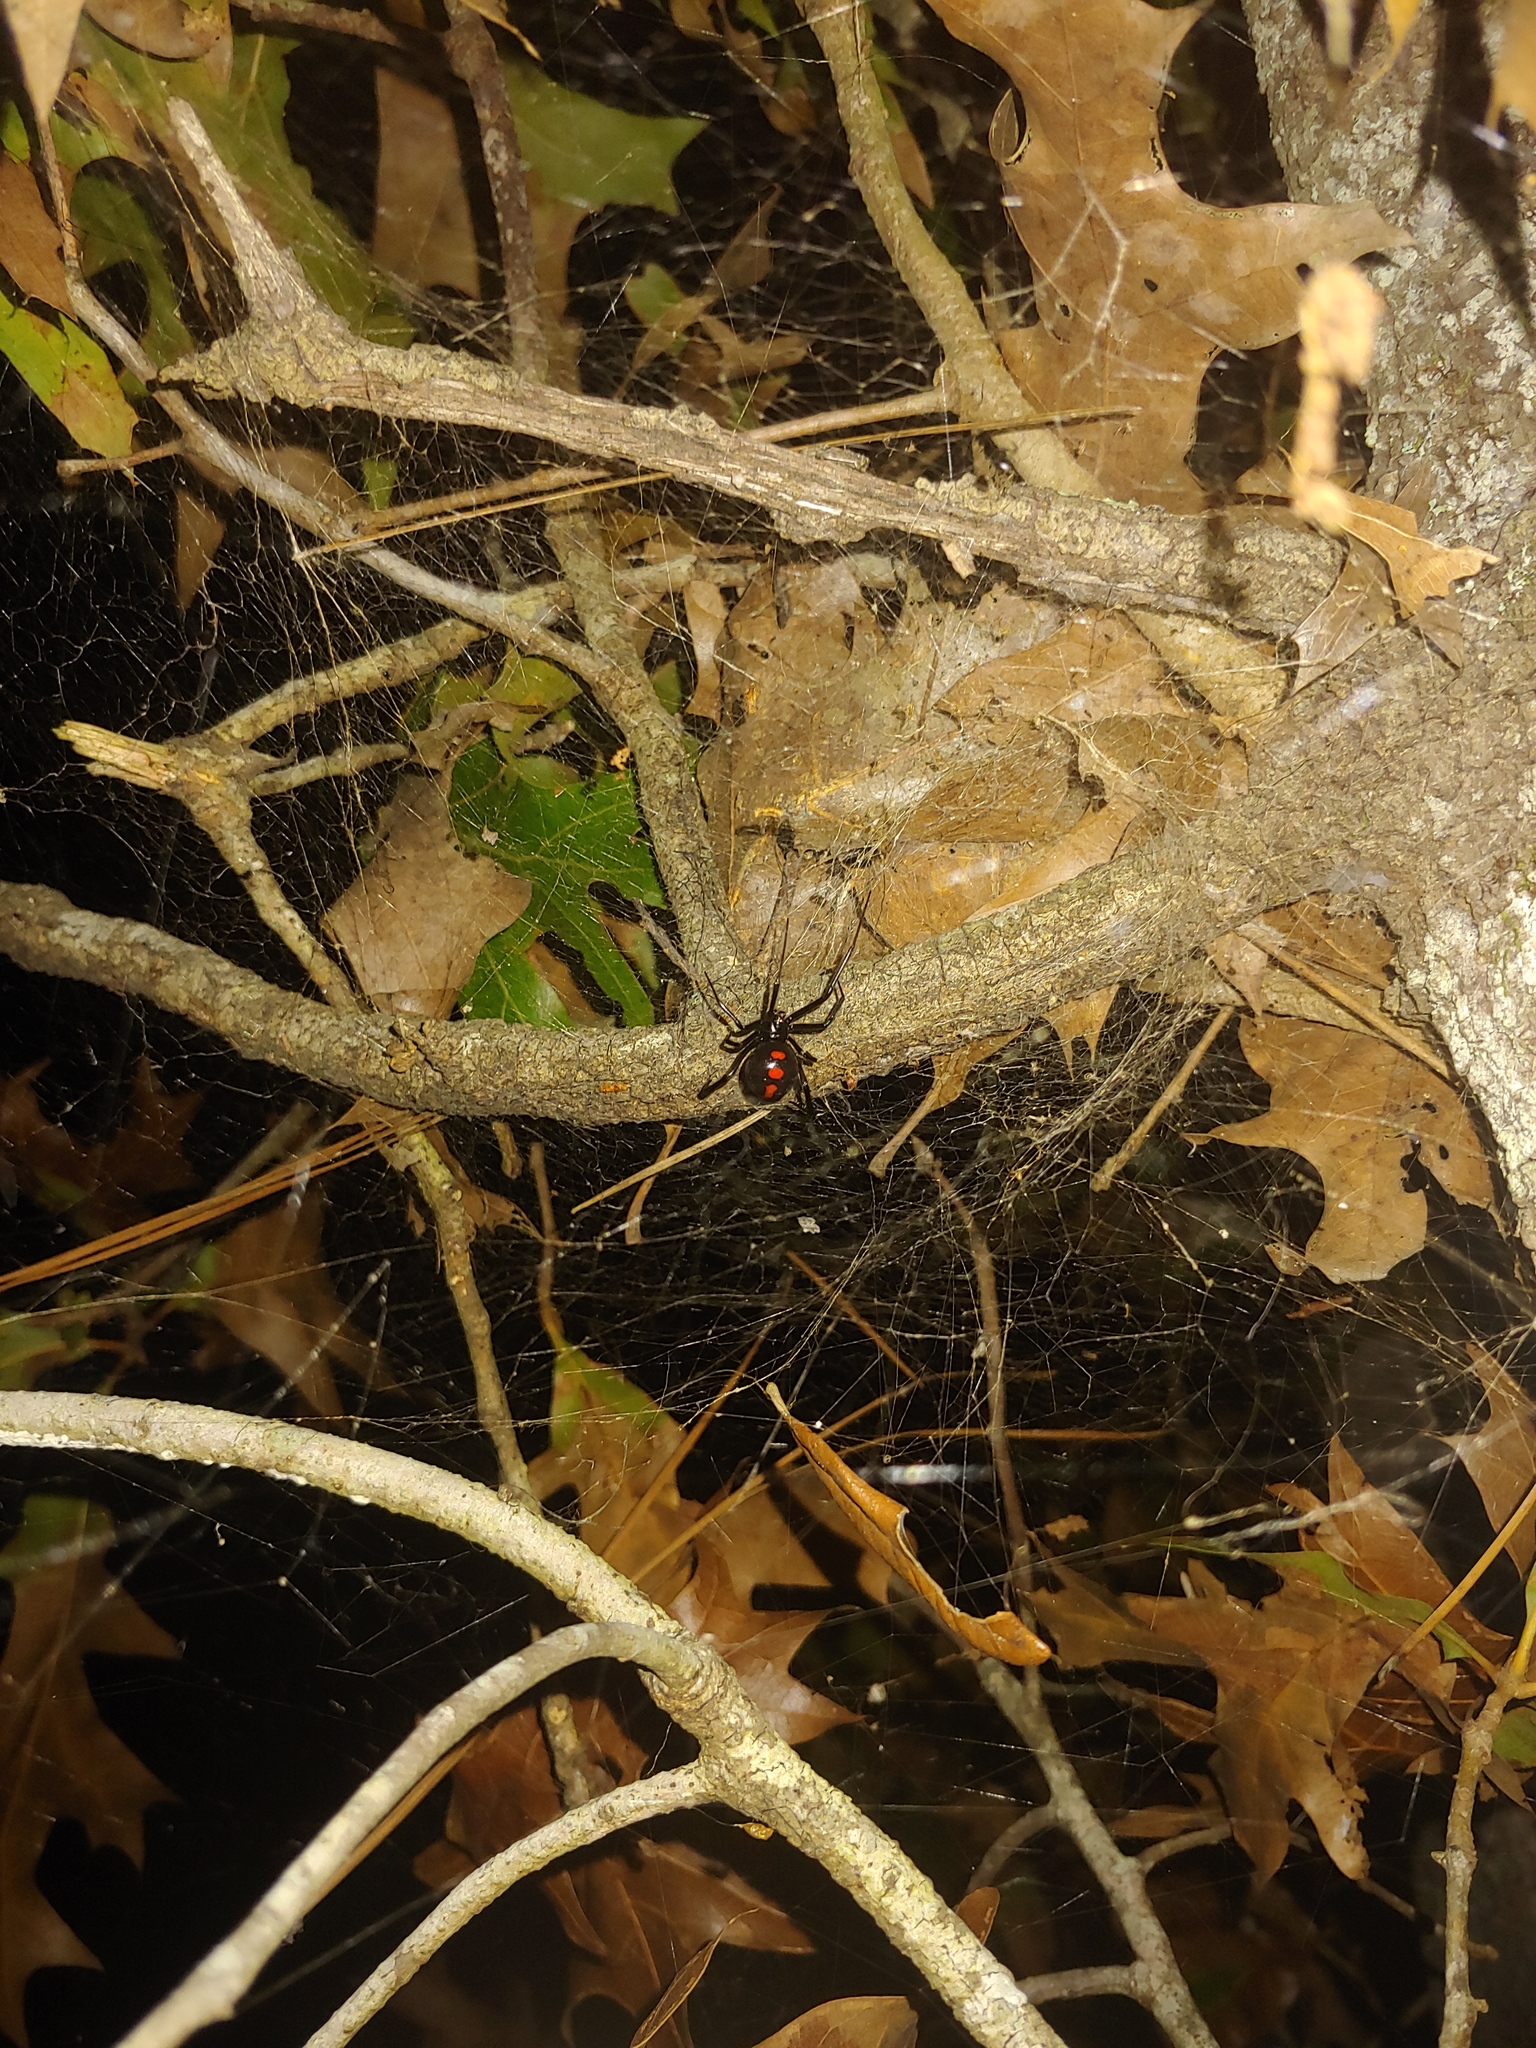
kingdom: Animalia
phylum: Arthropoda
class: Arachnida
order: Araneae
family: Theridiidae
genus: Latrodectus
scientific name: Latrodectus variolus
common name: Northern black widow
